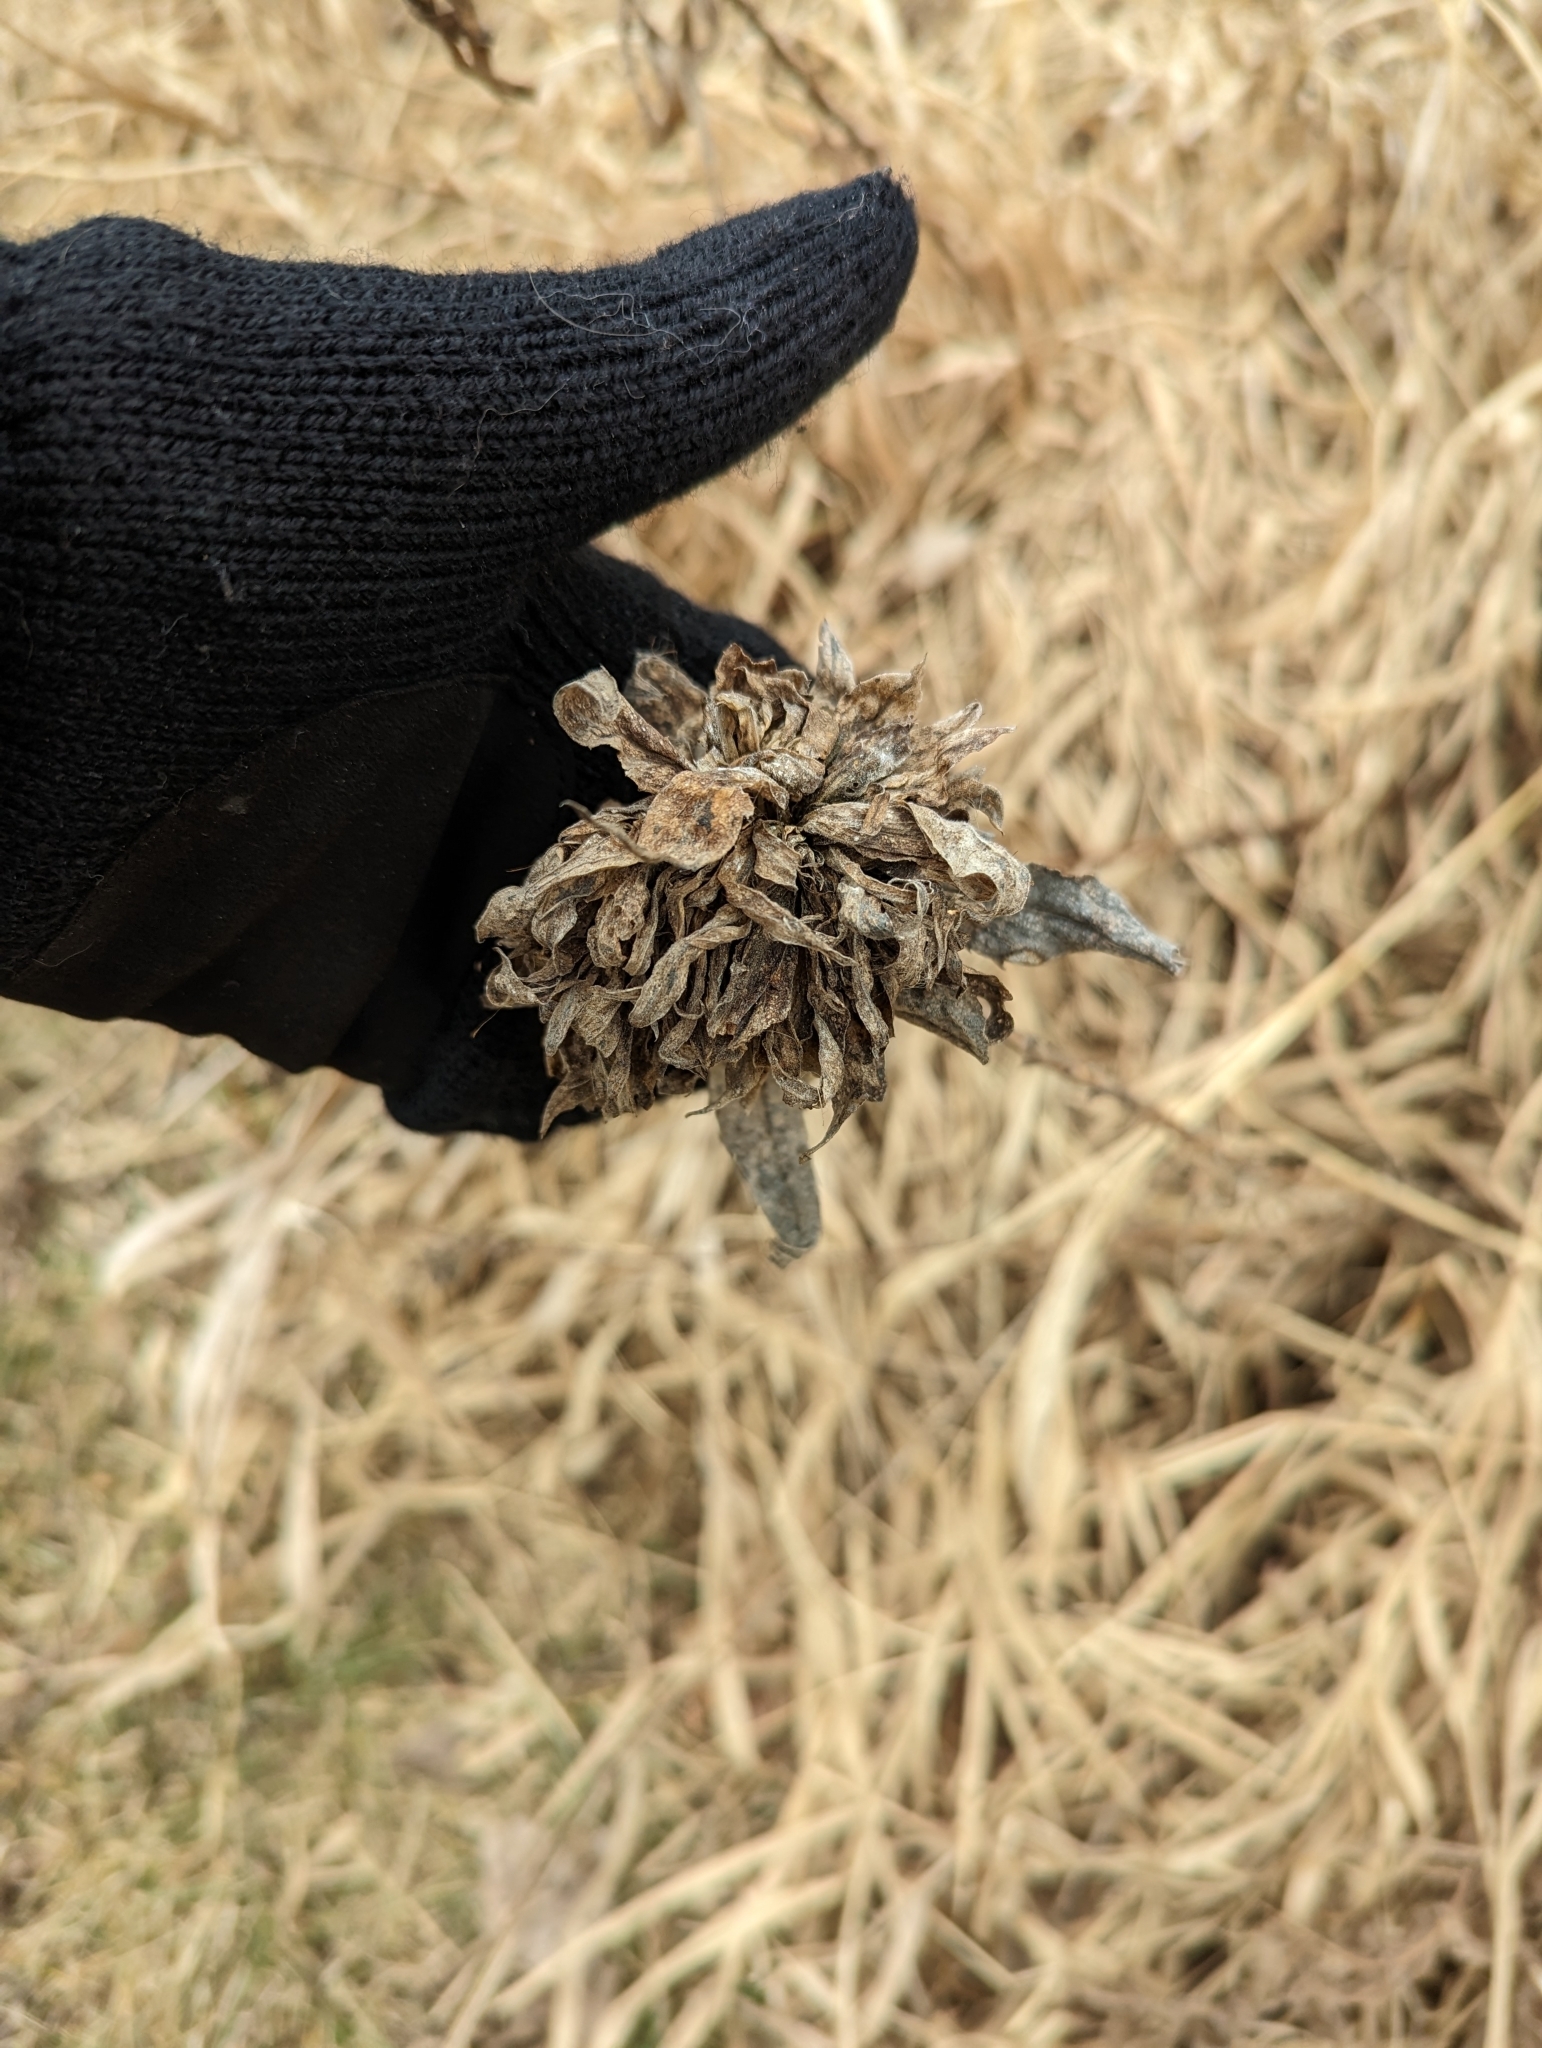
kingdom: Animalia
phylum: Arthropoda
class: Insecta
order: Diptera
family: Cecidomyiidae
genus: Rhopalomyia
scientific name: Rhopalomyia solidaginis
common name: Goldenrod bunch gall midge
